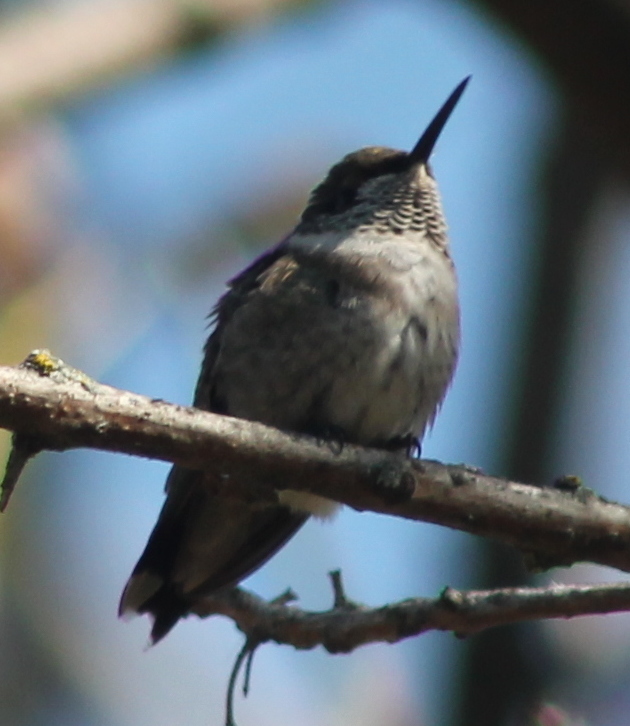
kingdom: Animalia
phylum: Chordata
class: Aves
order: Apodiformes
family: Trochilidae
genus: Archilochus
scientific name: Archilochus colubris
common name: Ruby-throated hummingbird
